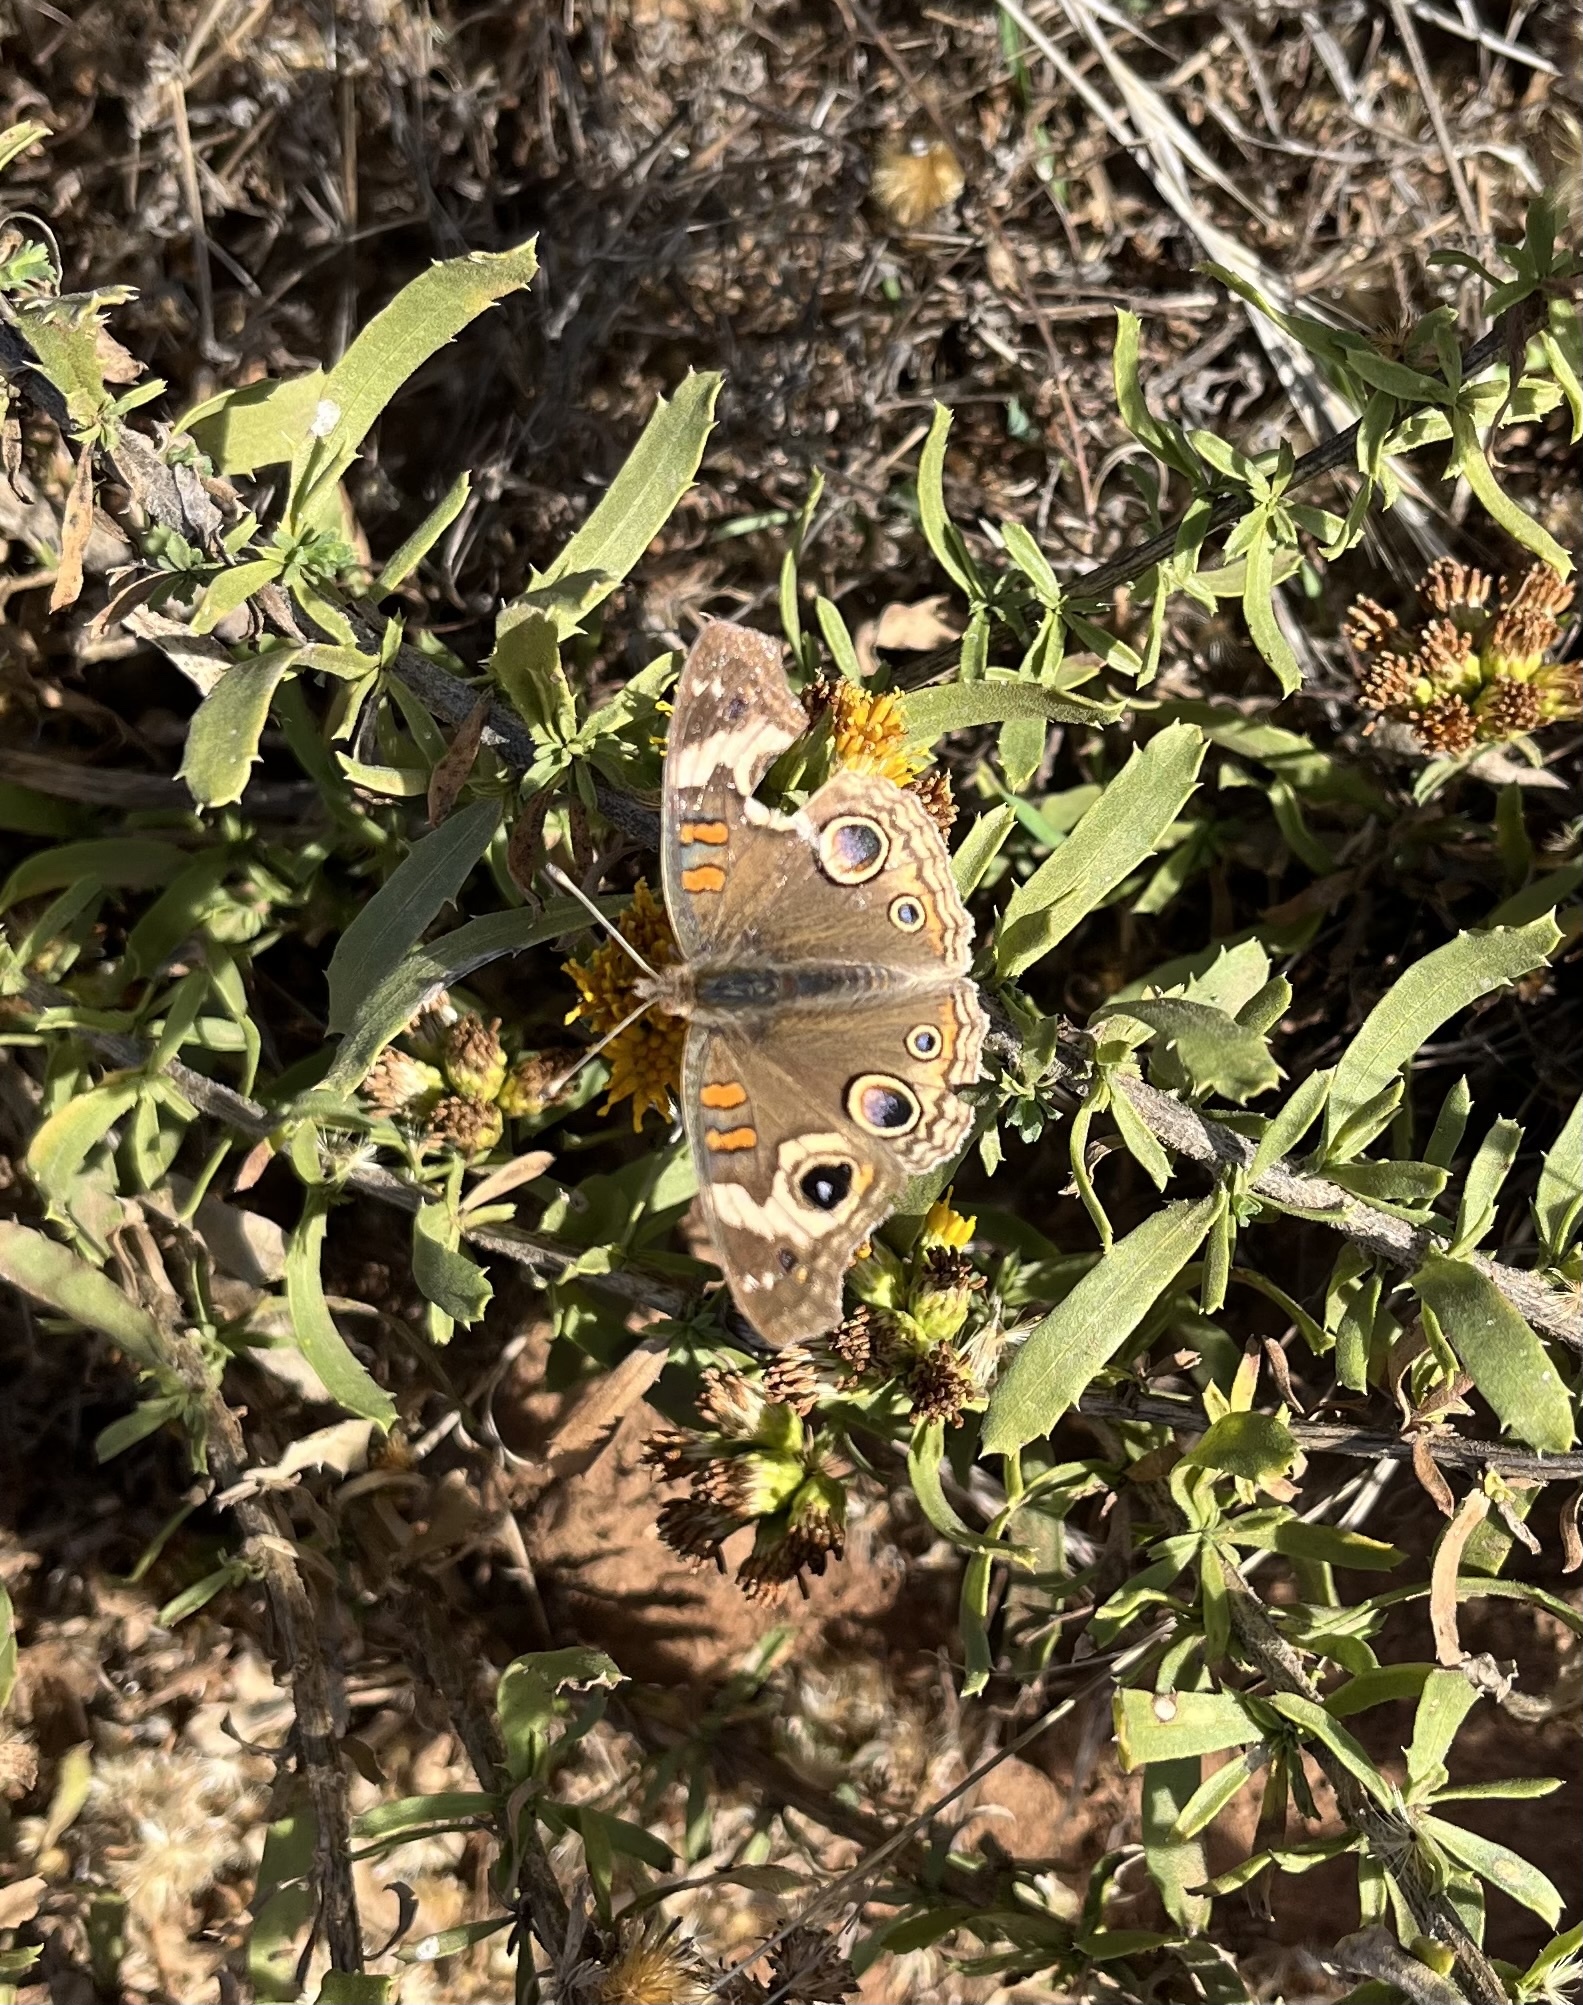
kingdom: Animalia
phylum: Arthropoda
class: Insecta
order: Lepidoptera
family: Nymphalidae
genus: Junonia
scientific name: Junonia grisea
